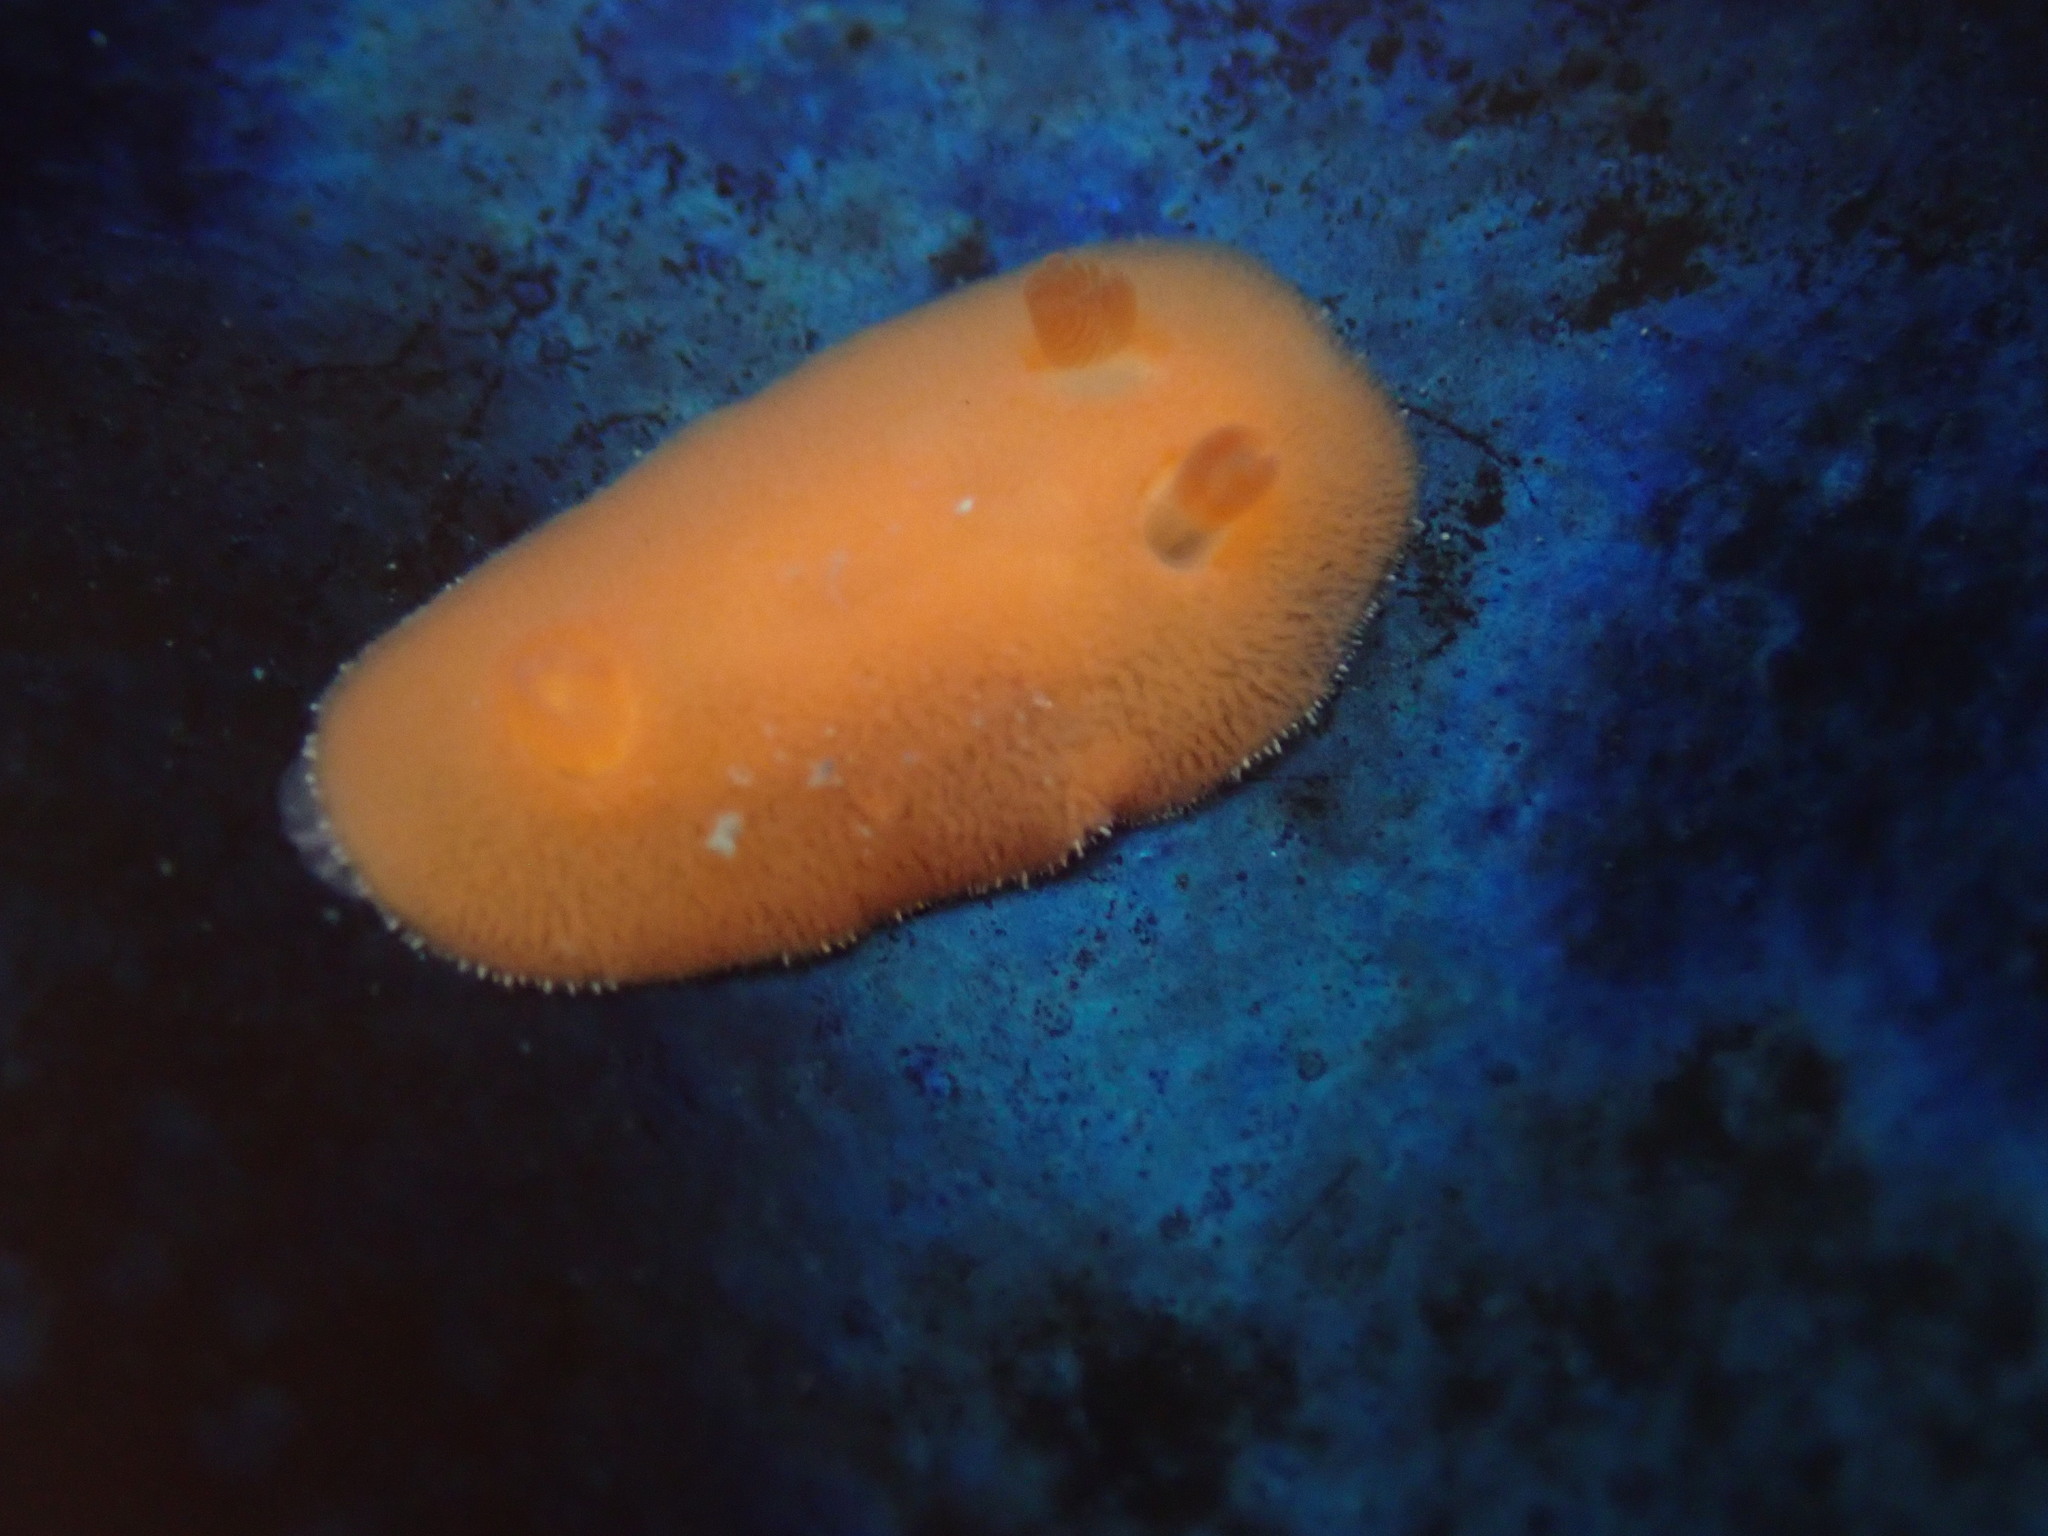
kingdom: Animalia
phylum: Mollusca
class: Gastropoda
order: Nudibranchia
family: Discodorididae
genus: Rostanga
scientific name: Rostanga pulchra
